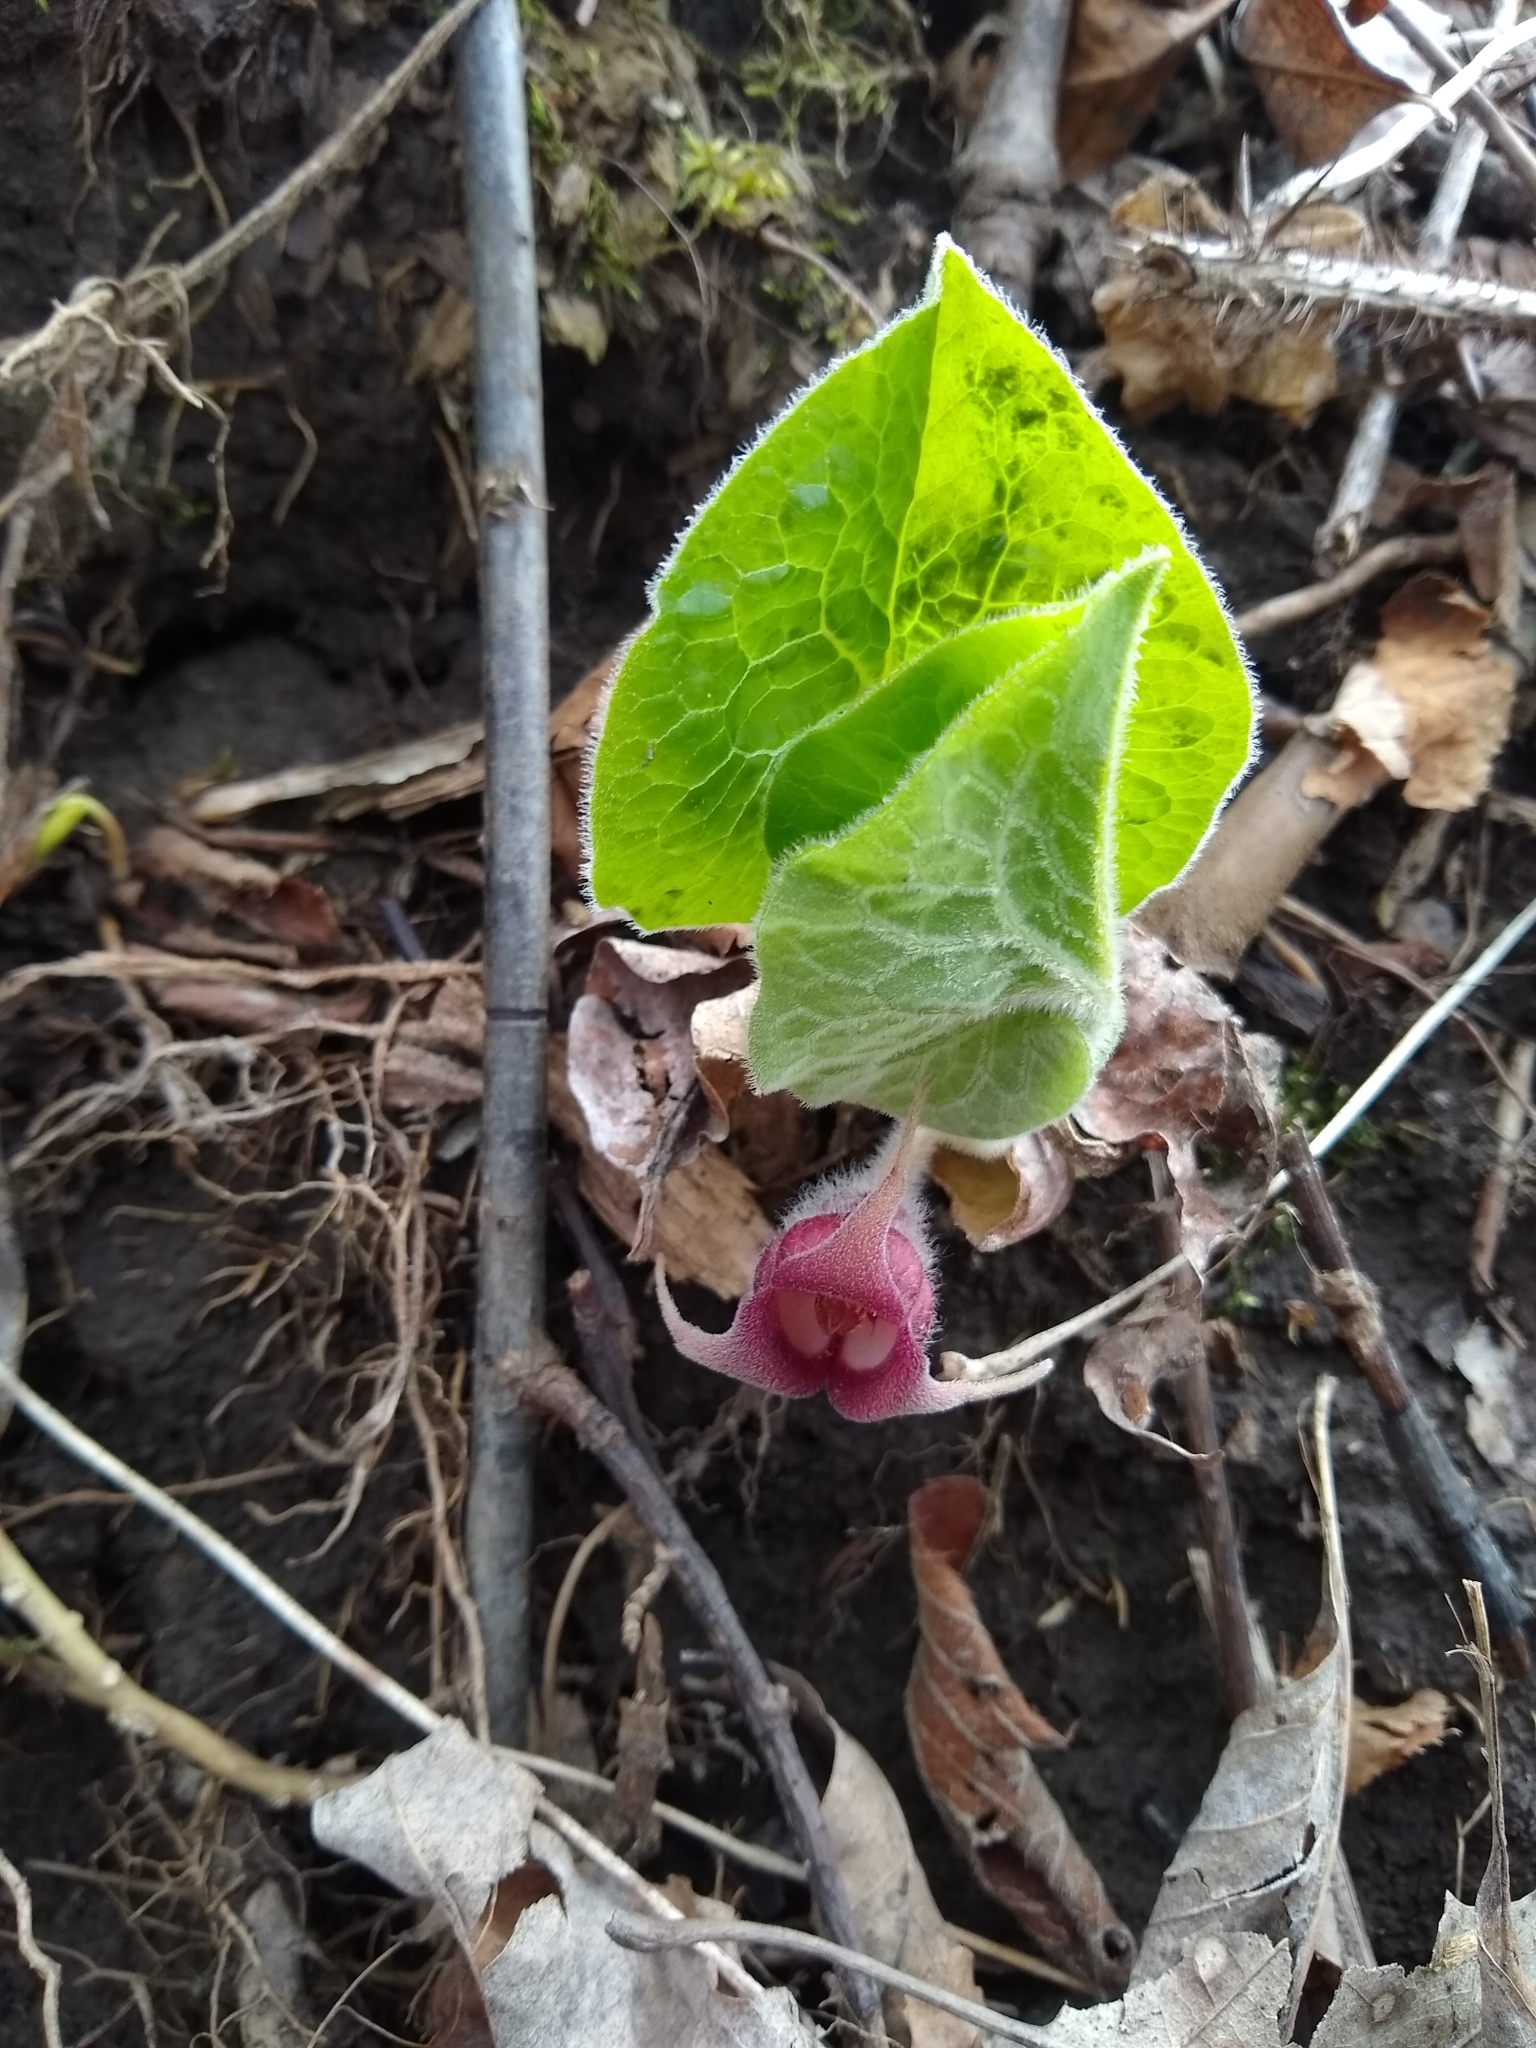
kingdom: Plantae
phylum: Tracheophyta
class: Magnoliopsida
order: Piperales
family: Aristolochiaceae
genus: Asarum
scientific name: Asarum canadense
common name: Wild ginger
